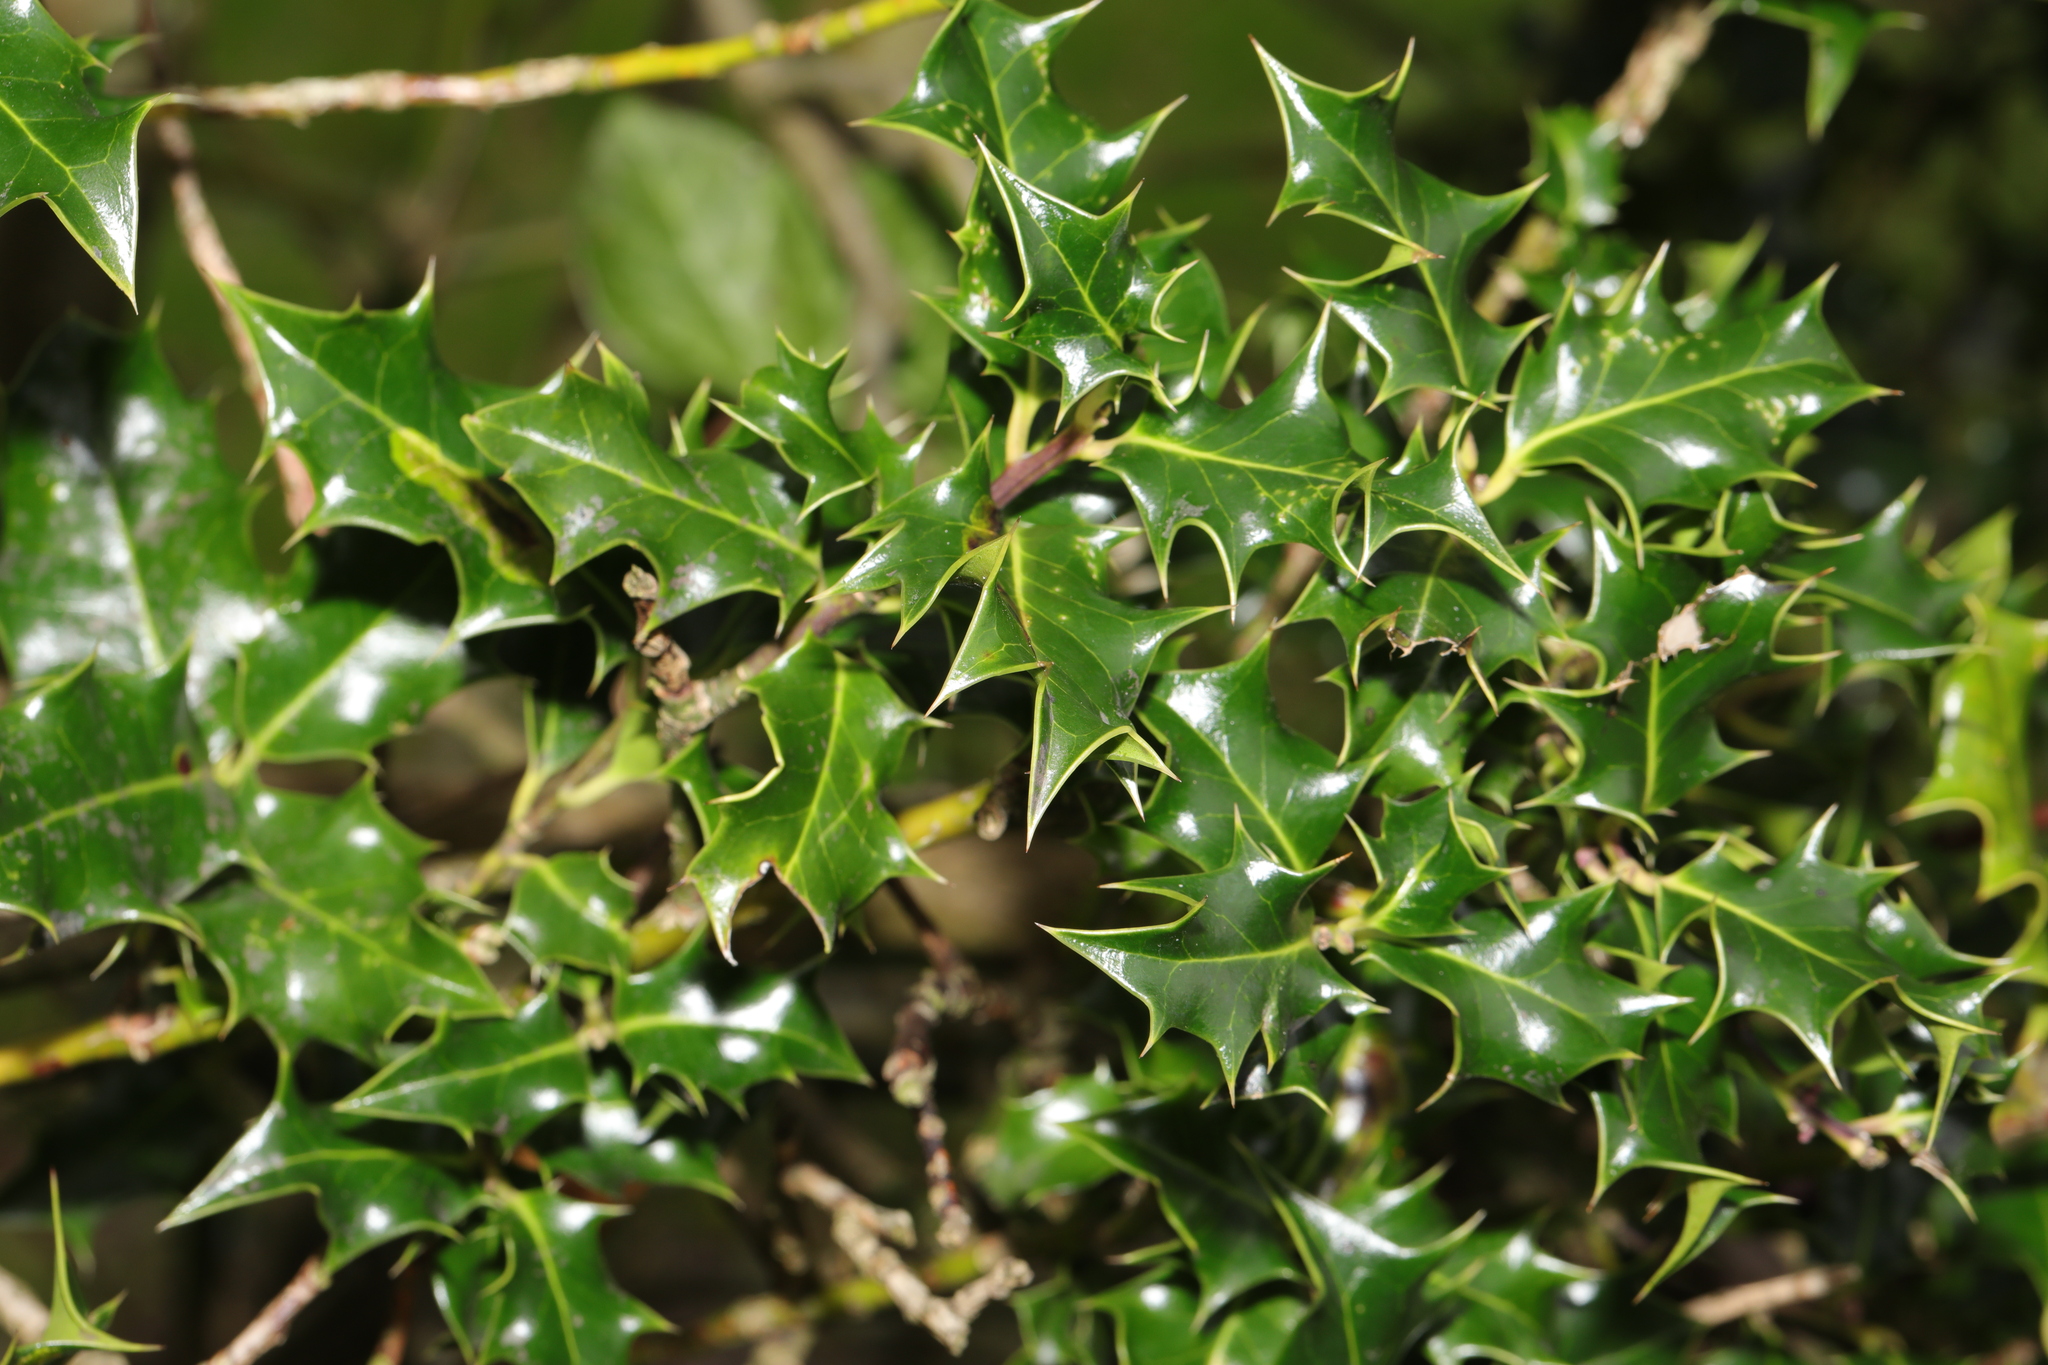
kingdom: Plantae
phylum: Tracheophyta
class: Magnoliopsida
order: Aquifoliales
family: Aquifoliaceae
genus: Ilex
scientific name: Ilex aquifolium
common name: English holly
